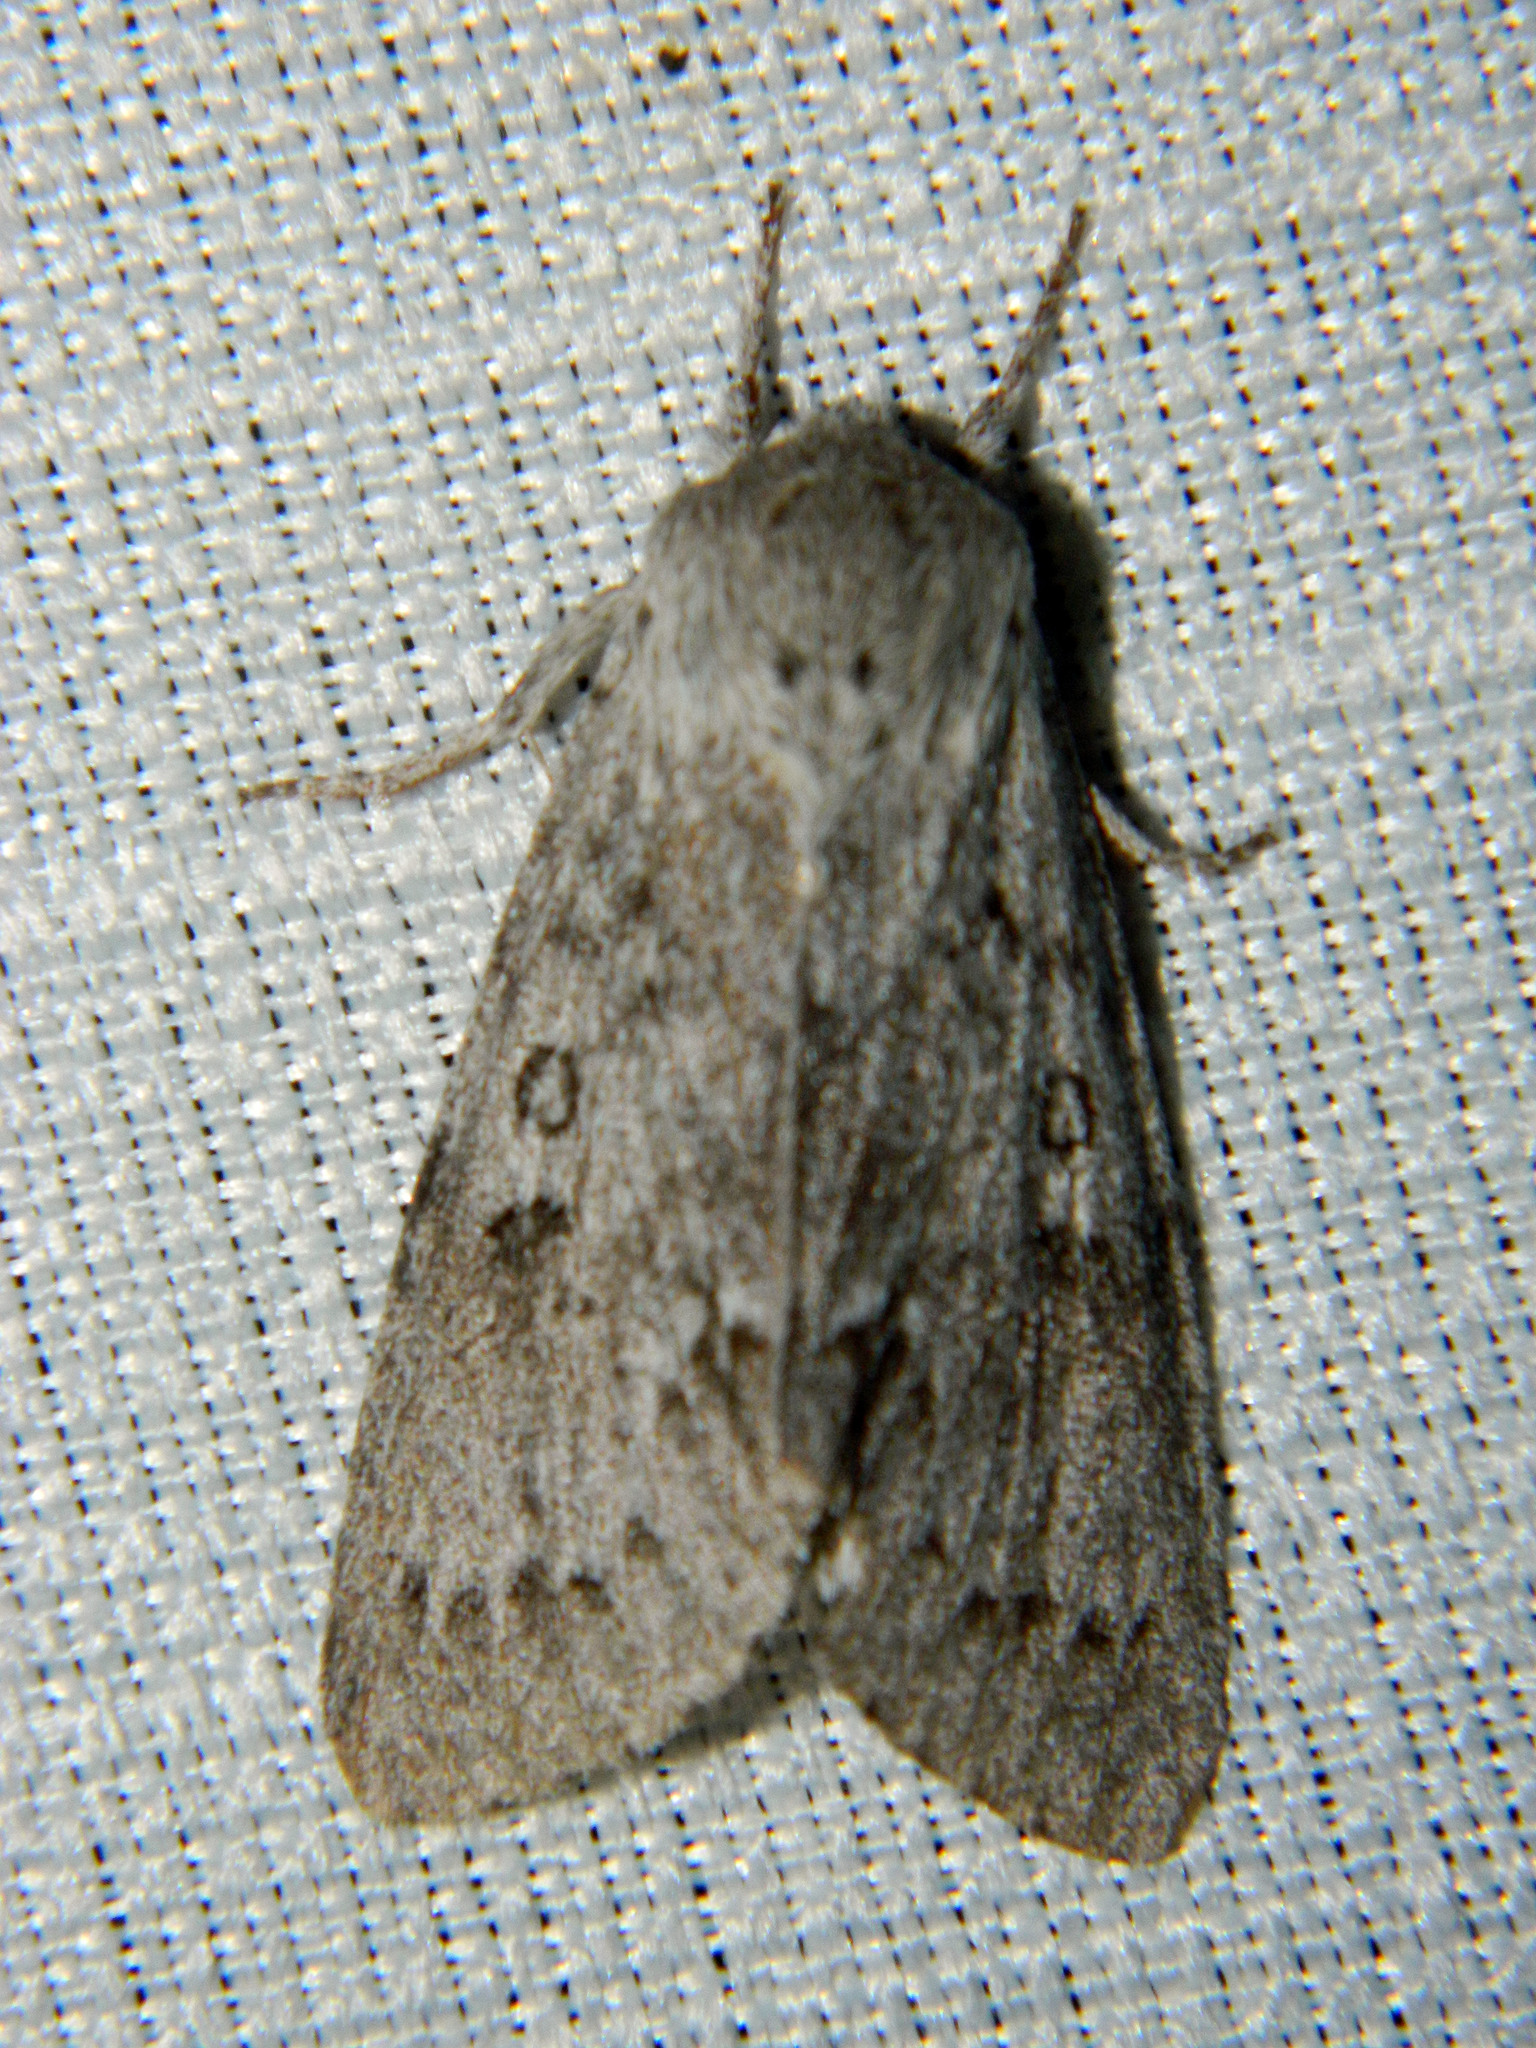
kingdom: Animalia
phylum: Arthropoda
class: Insecta
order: Lepidoptera
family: Noctuidae
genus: Acronicta
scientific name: Acronicta insita
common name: Large gray dagger
